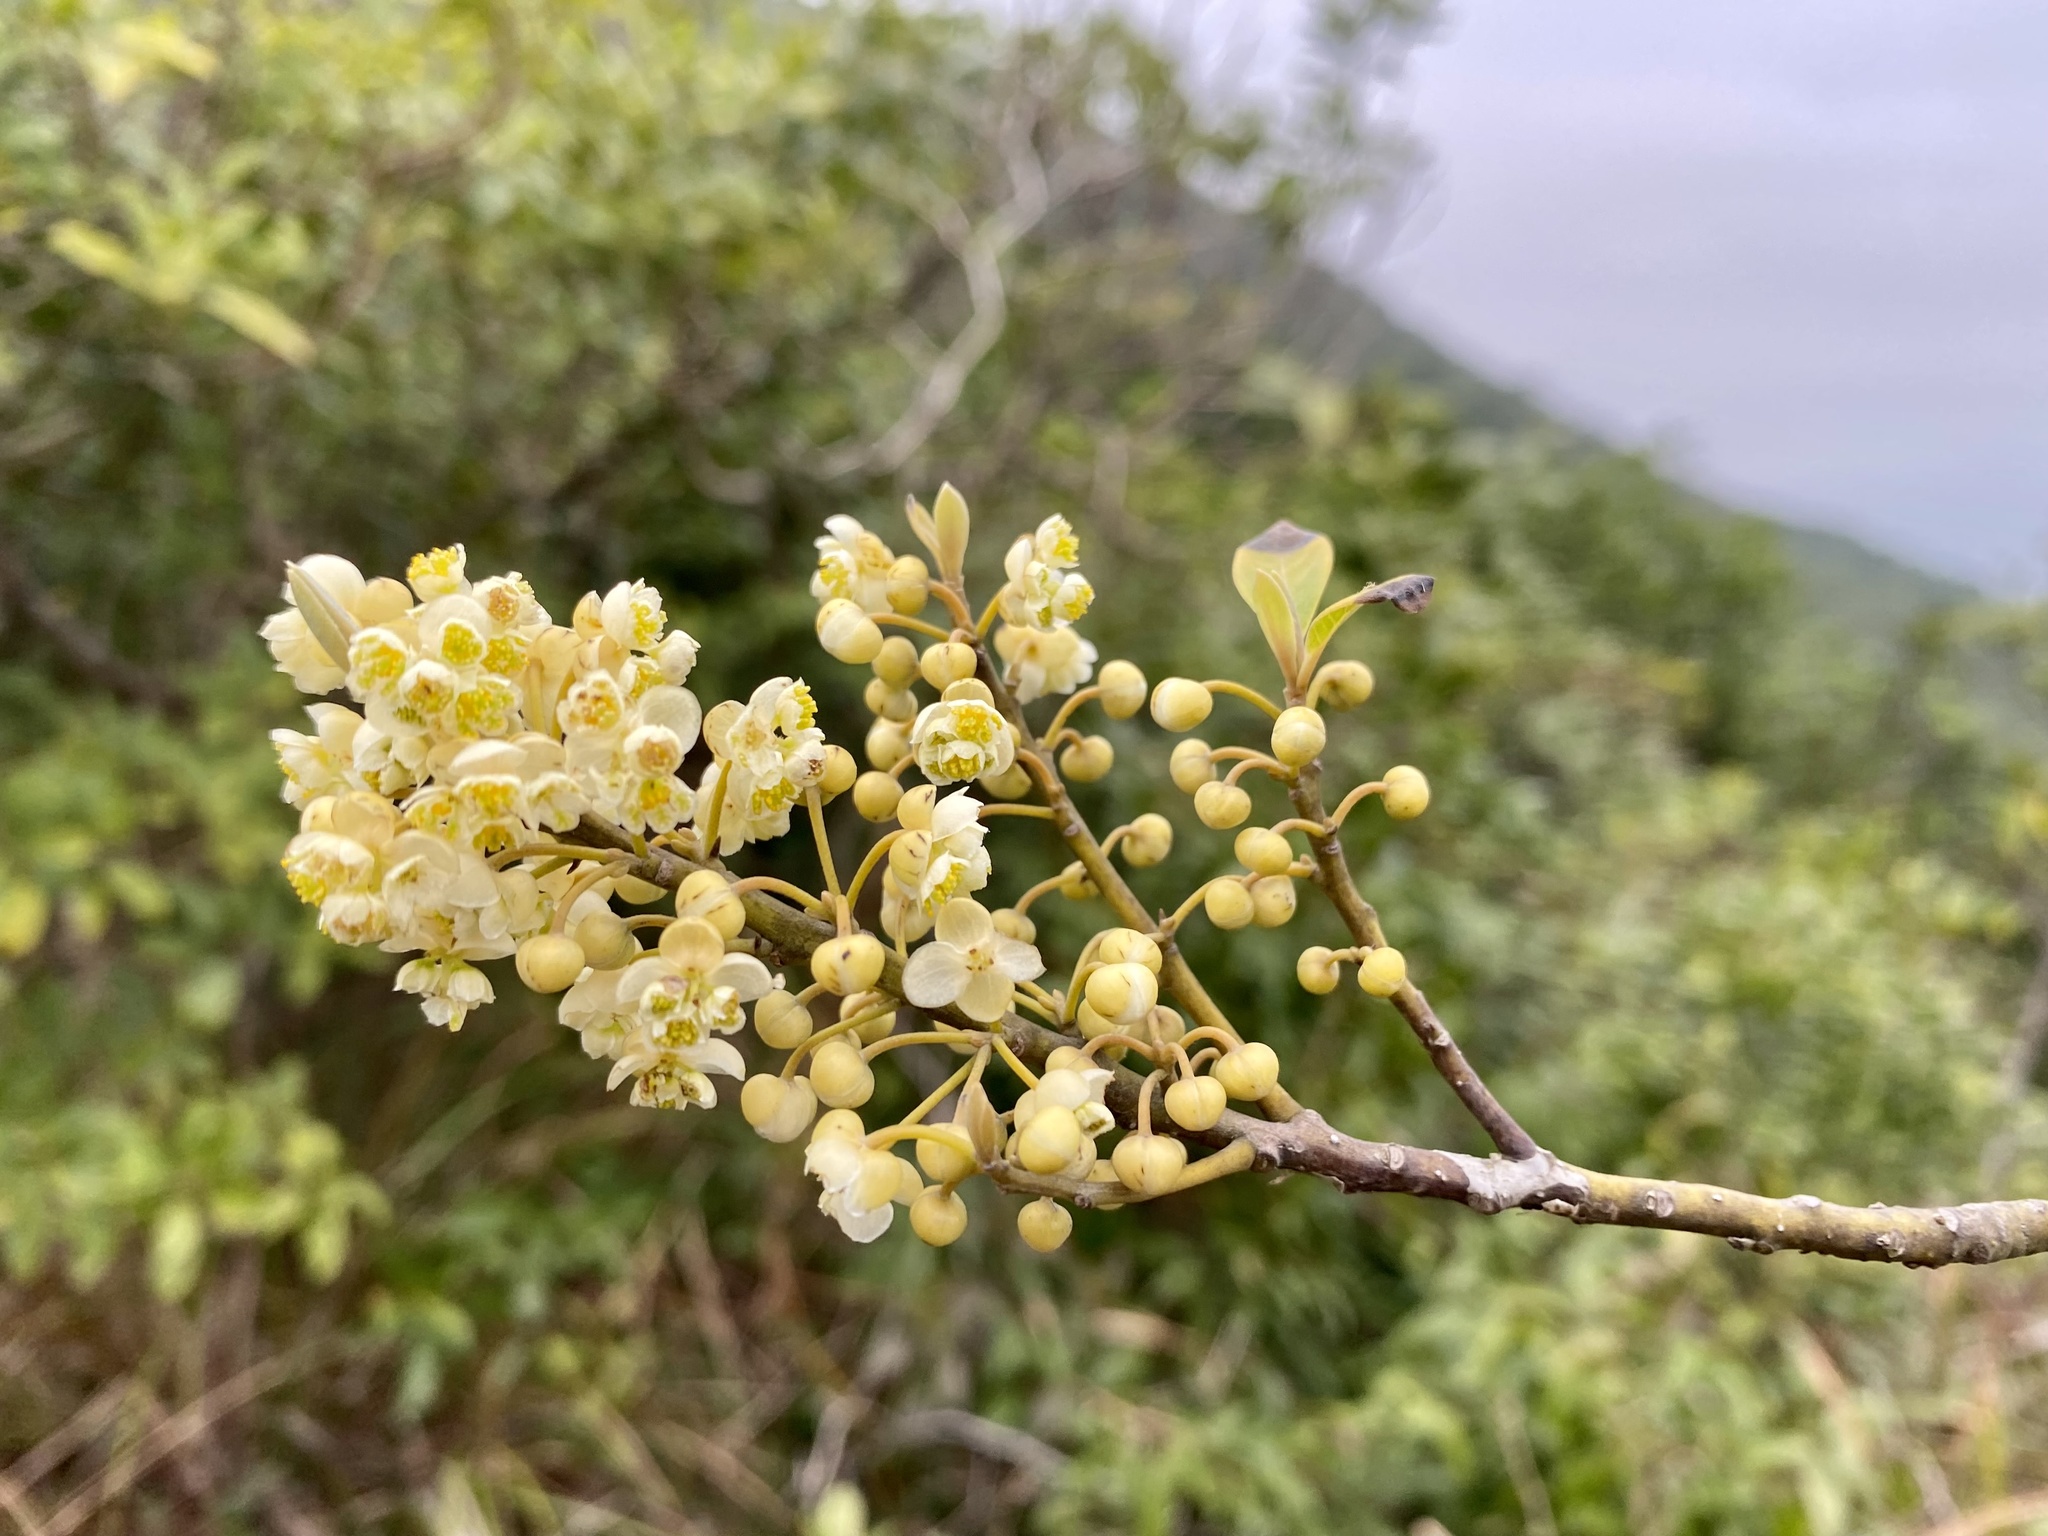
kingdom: Plantae
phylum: Tracheophyta
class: Magnoliopsida
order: Laurales
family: Lauraceae
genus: Litsea
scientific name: Litsea cubeba
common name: Mountain-pepper
